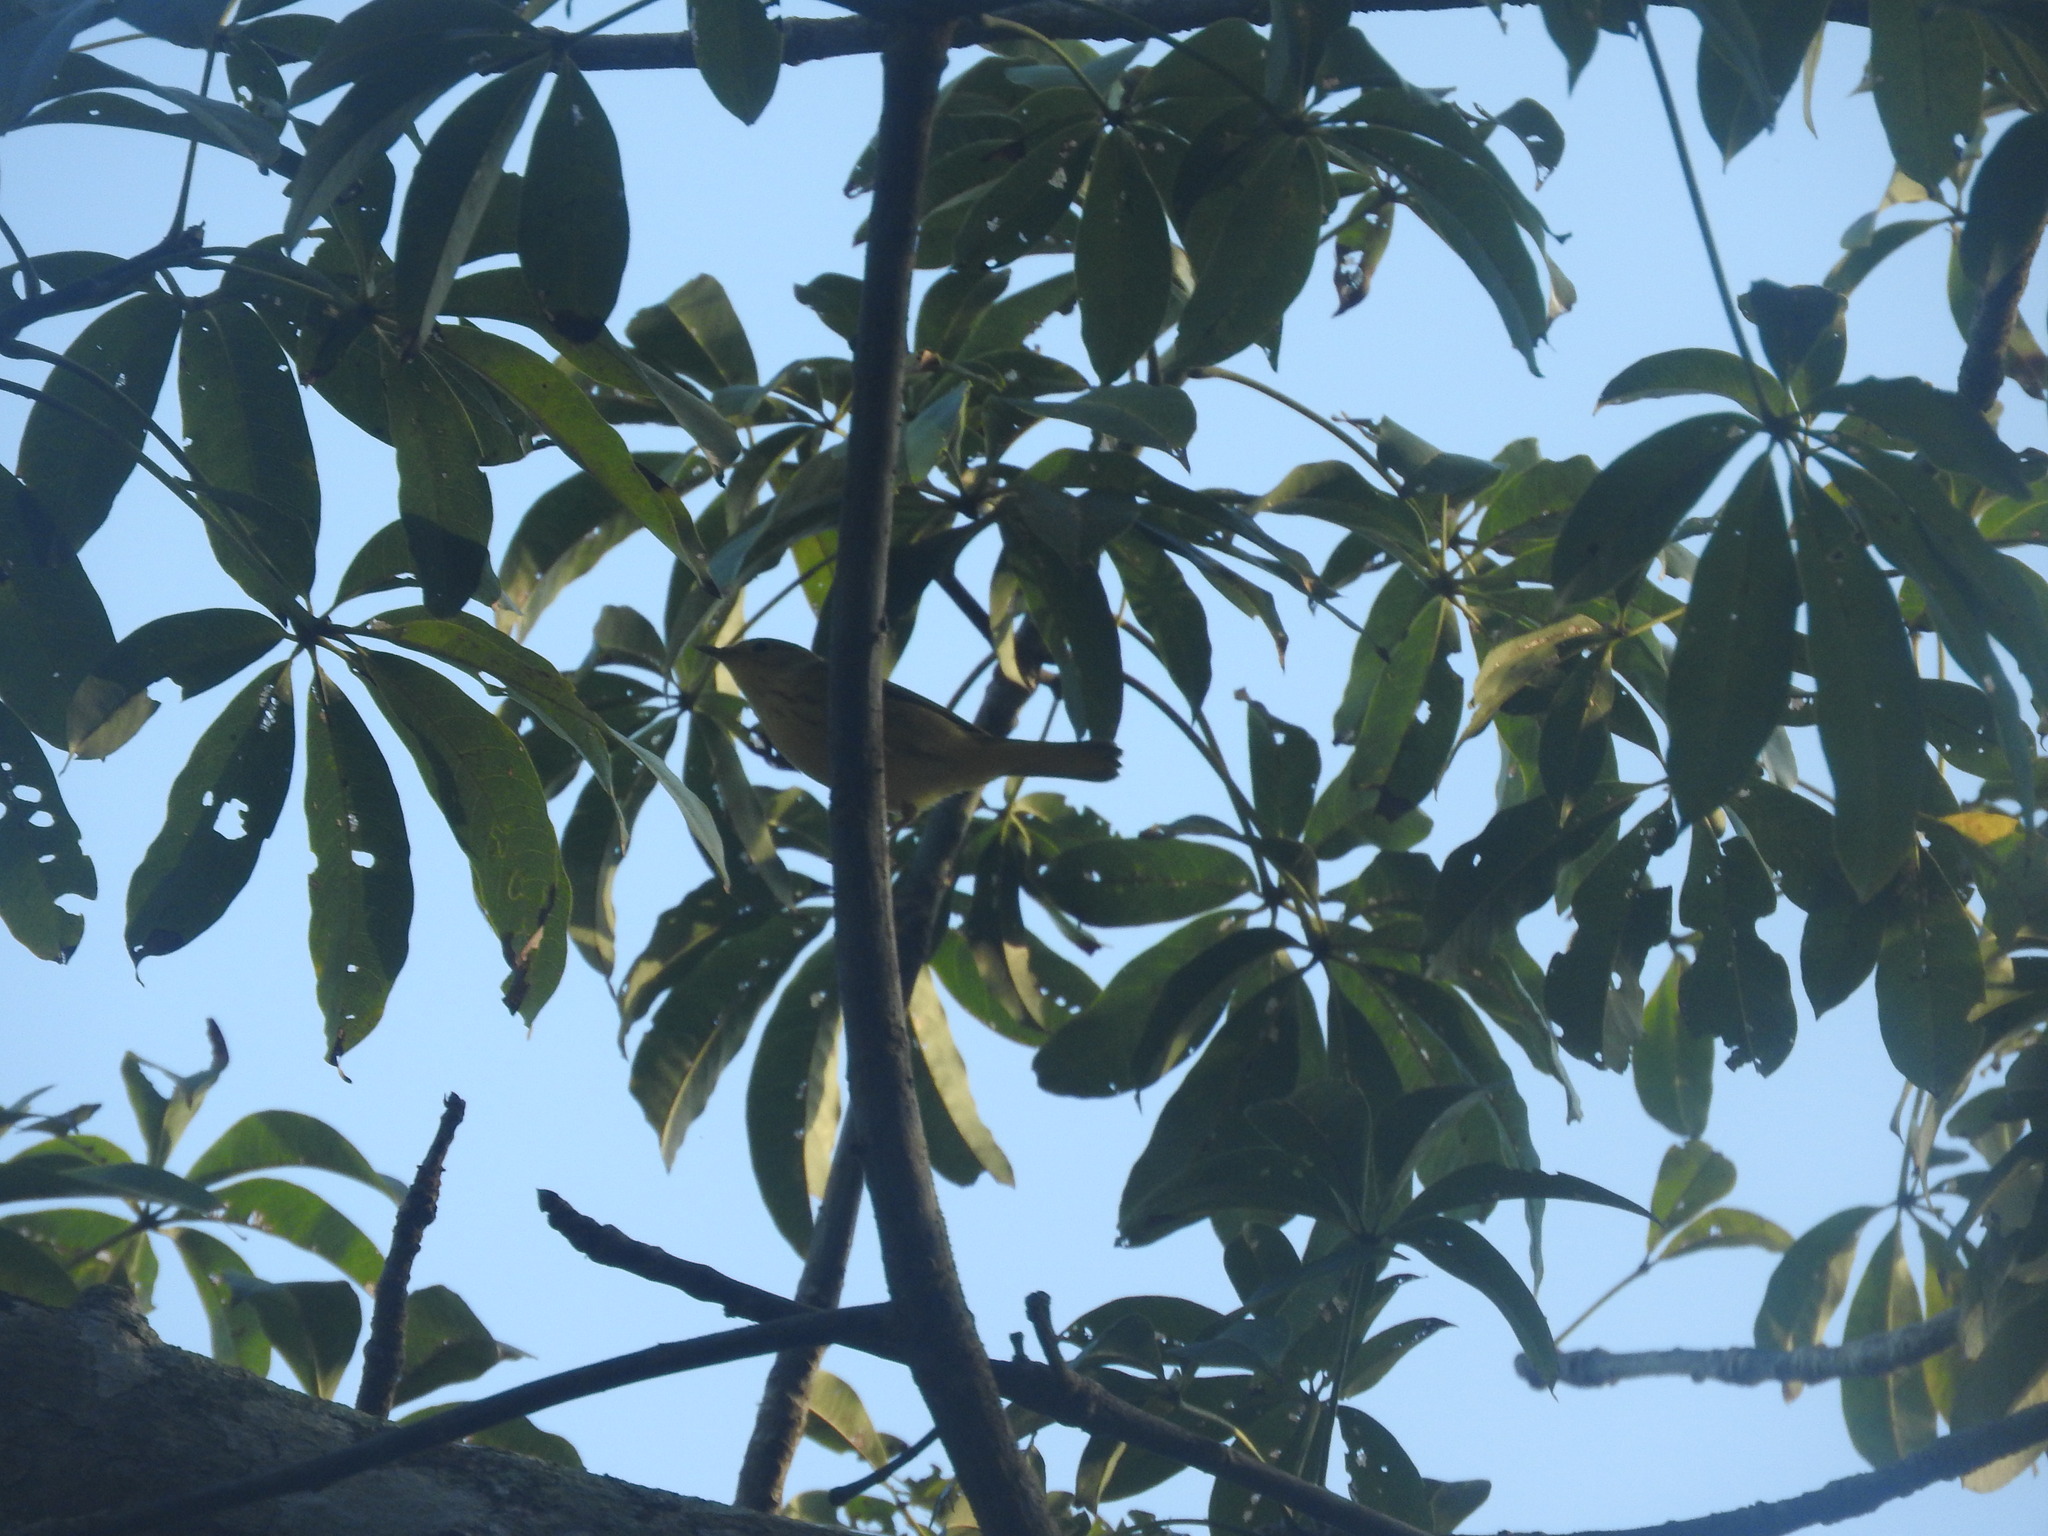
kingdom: Animalia
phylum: Chordata
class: Aves
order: Passeriformes
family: Parulidae
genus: Setophaga
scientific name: Setophaga petechia
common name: Yellow warbler
